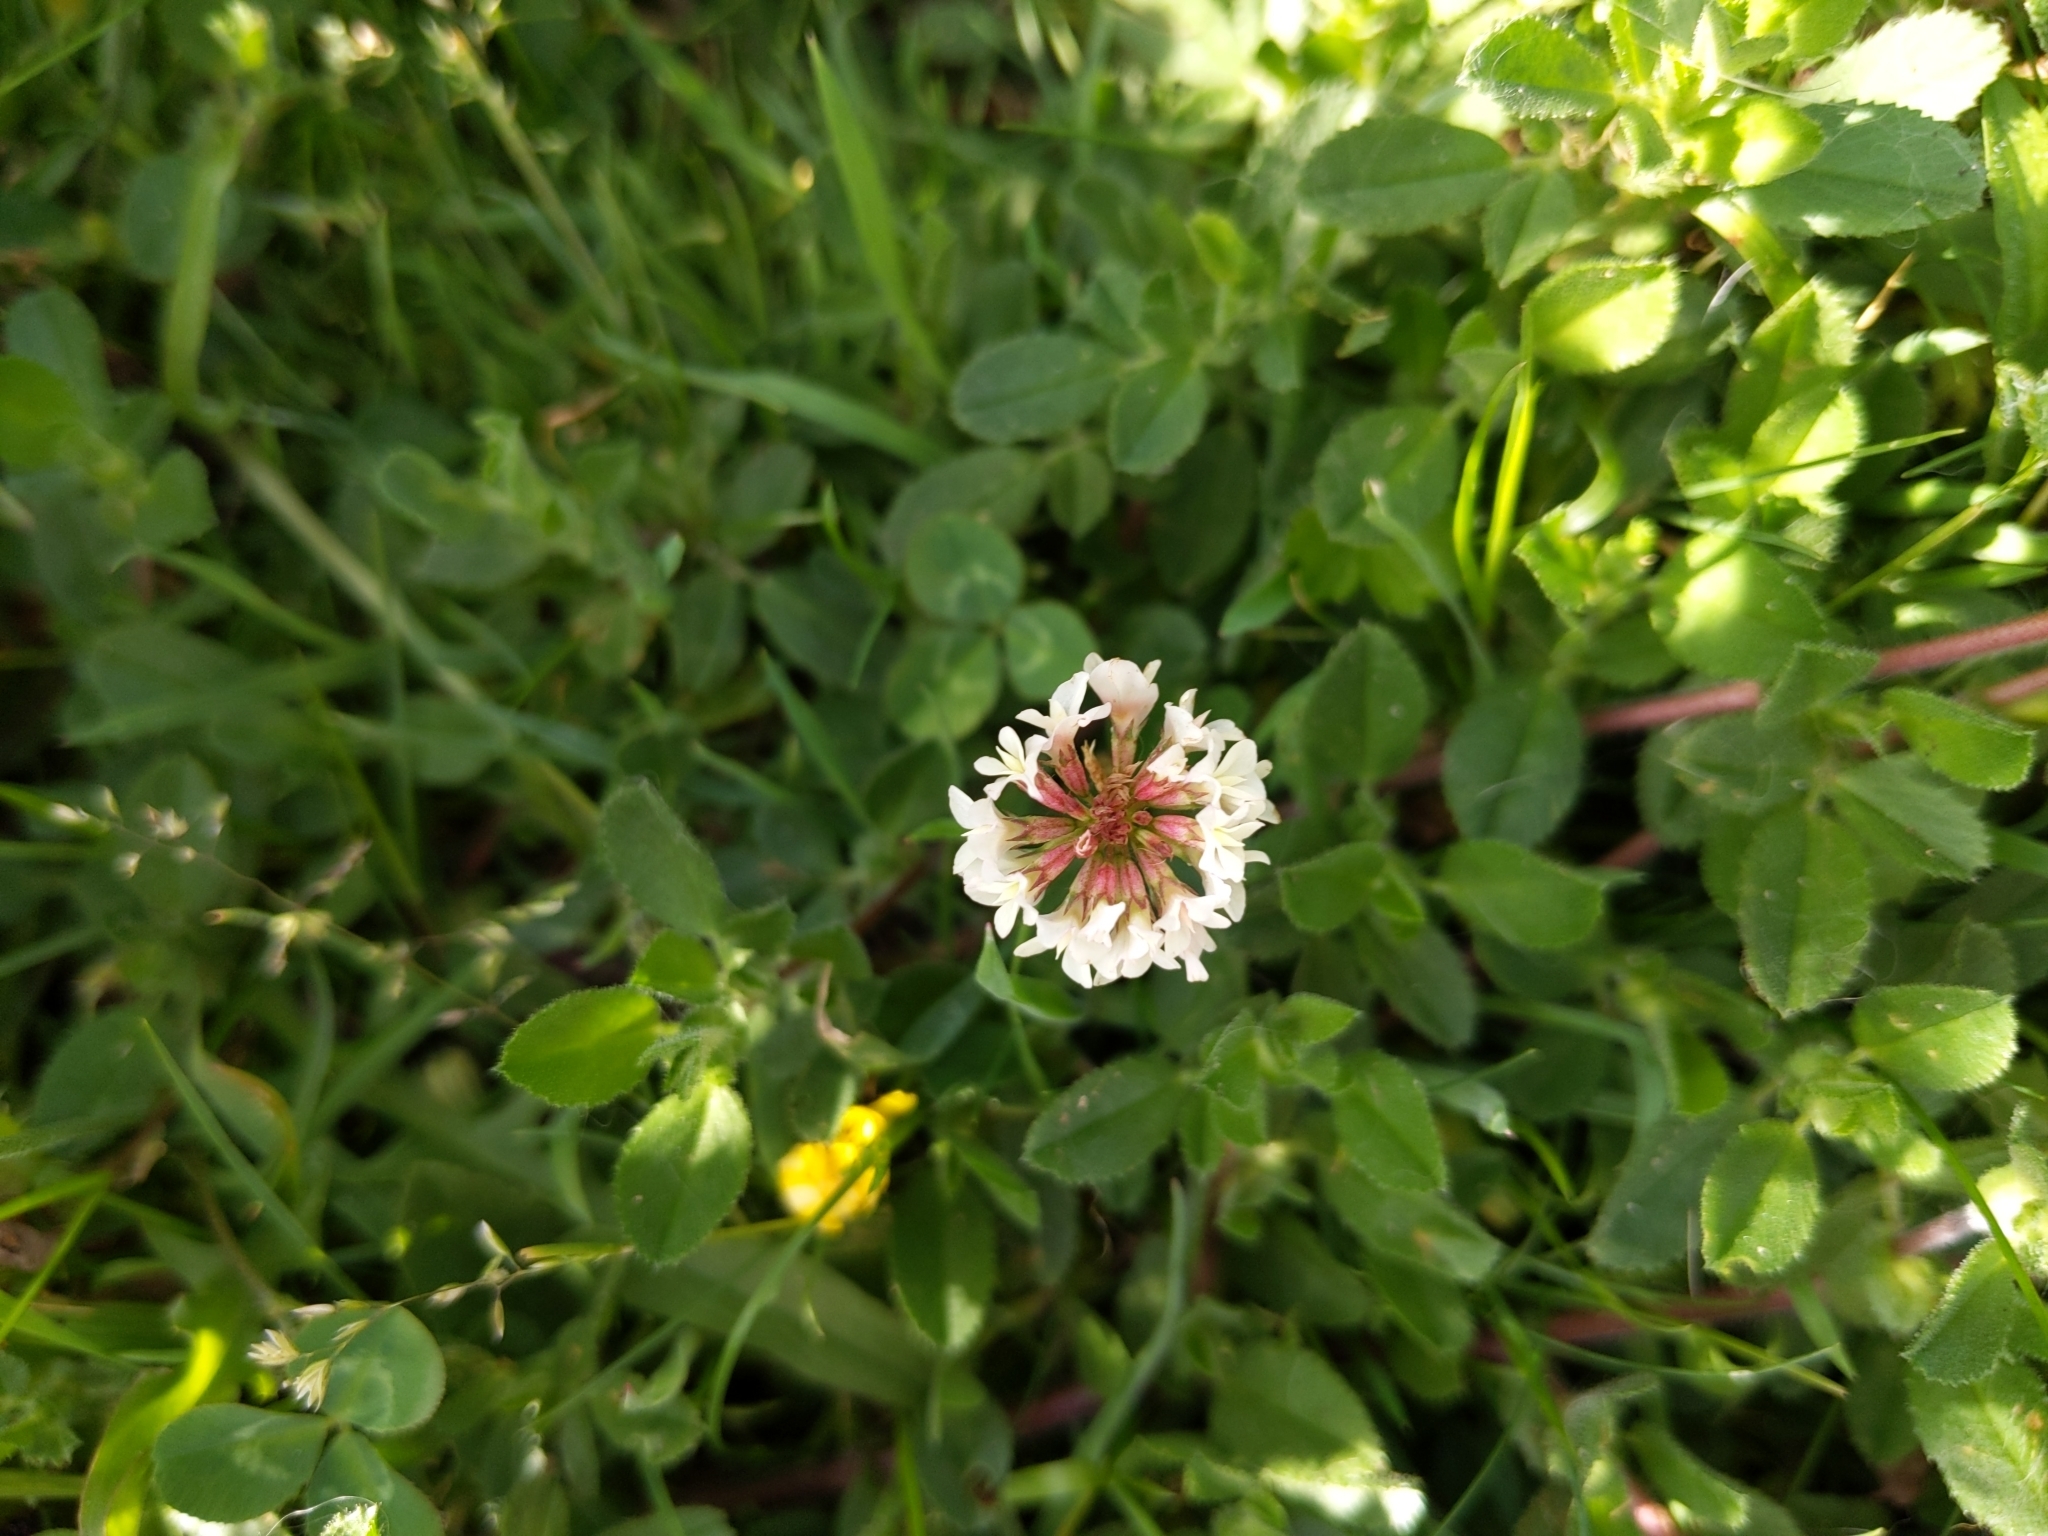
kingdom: Plantae
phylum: Tracheophyta
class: Magnoliopsida
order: Fabales
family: Fabaceae
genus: Trifolium
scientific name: Trifolium repens
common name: White clover
